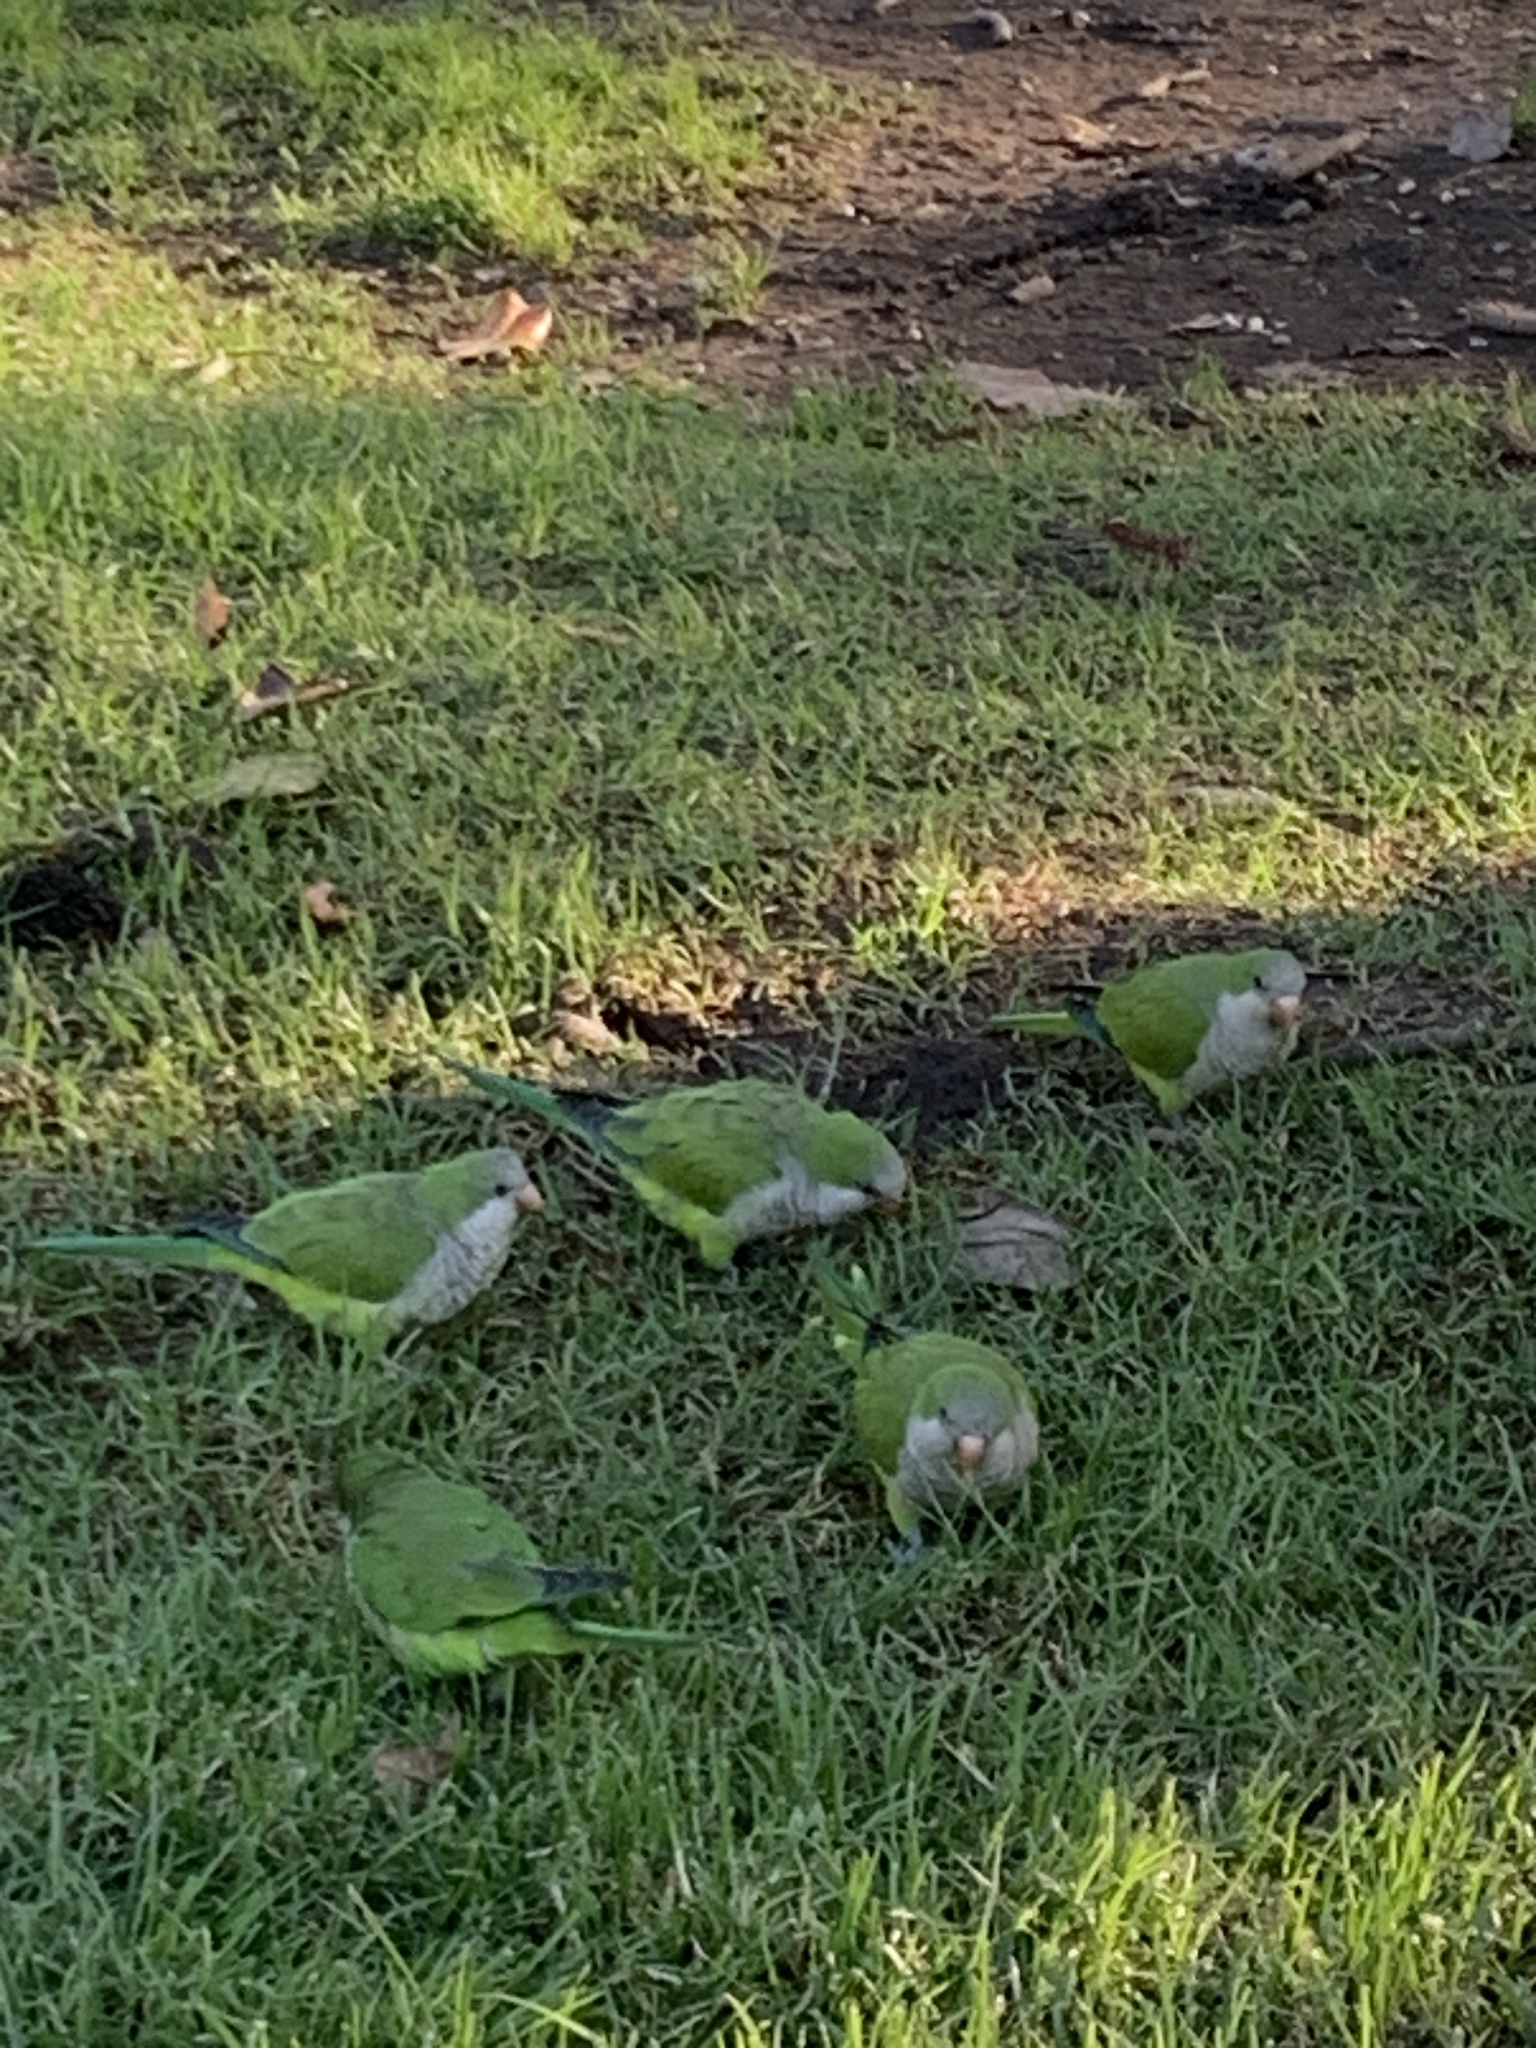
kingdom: Animalia
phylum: Chordata
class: Aves
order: Psittaciformes
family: Psittacidae
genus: Myiopsitta
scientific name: Myiopsitta monachus
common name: Monk parakeet
